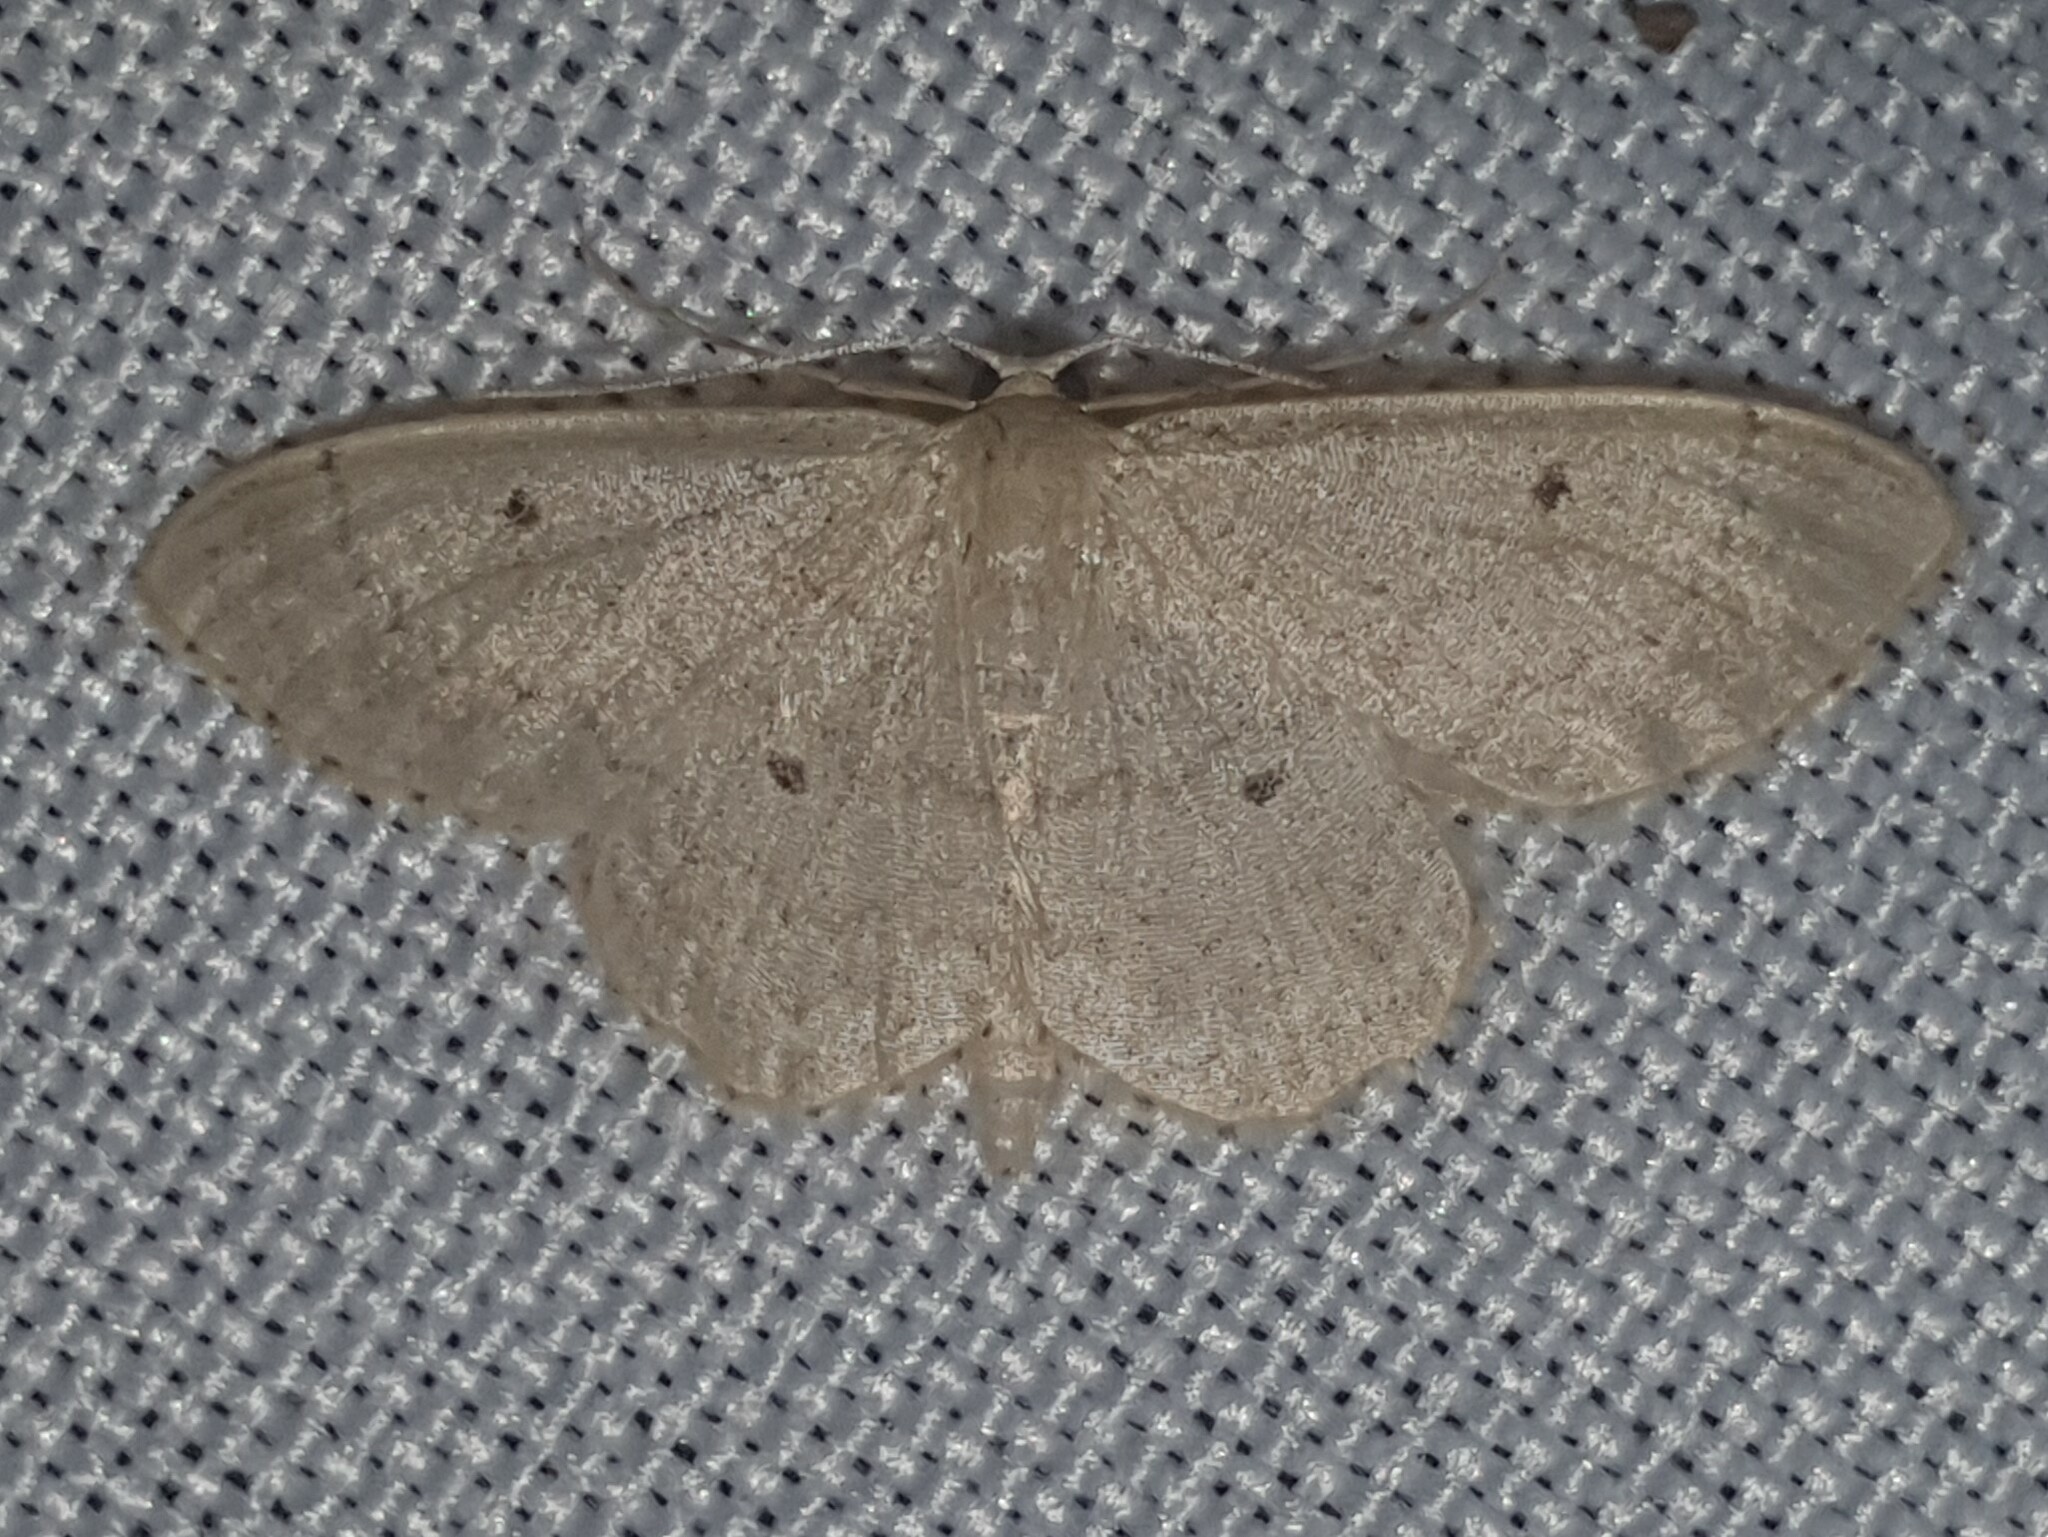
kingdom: Animalia
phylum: Arthropoda
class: Insecta
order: Lepidoptera
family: Geometridae
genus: Idaea
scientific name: Idaea biselata
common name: Small fan-footed wave
